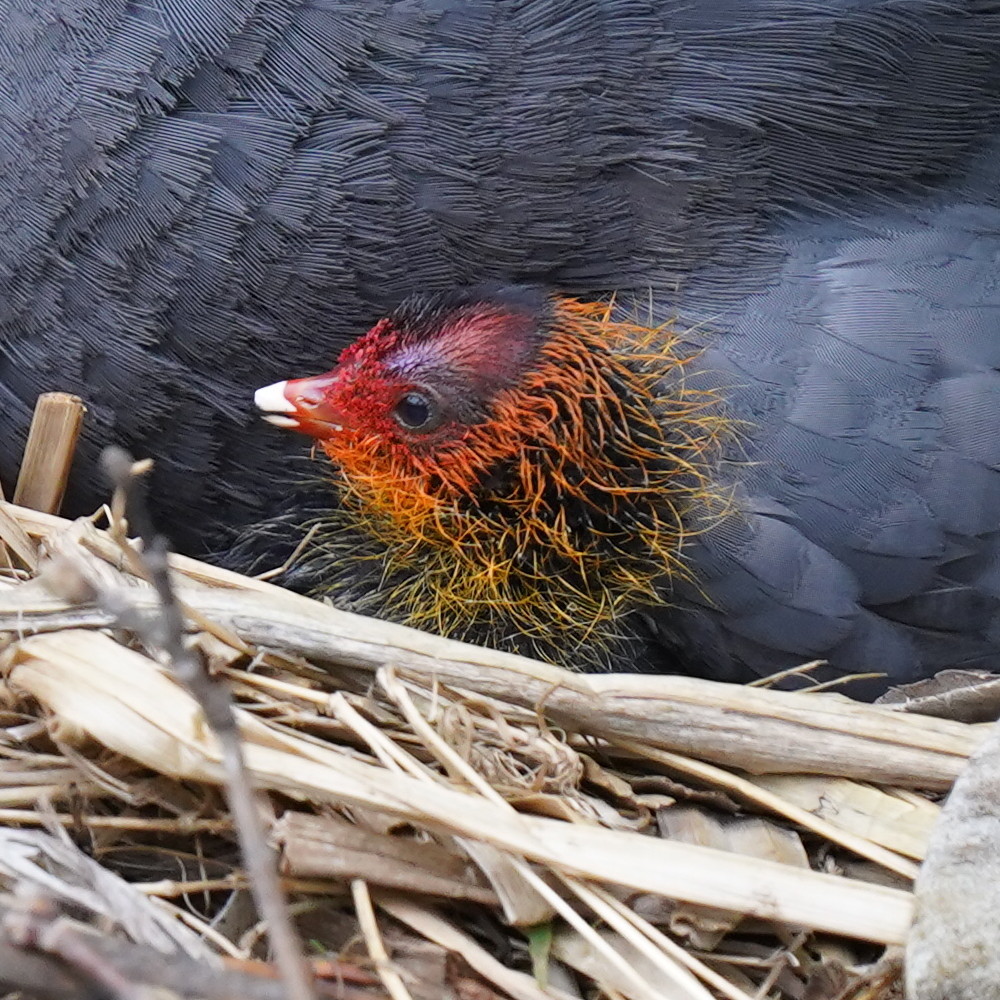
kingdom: Animalia
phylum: Chordata
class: Aves
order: Gruiformes
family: Rallidae
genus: Fulica
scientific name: Fulica atra
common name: Eurasian coot
